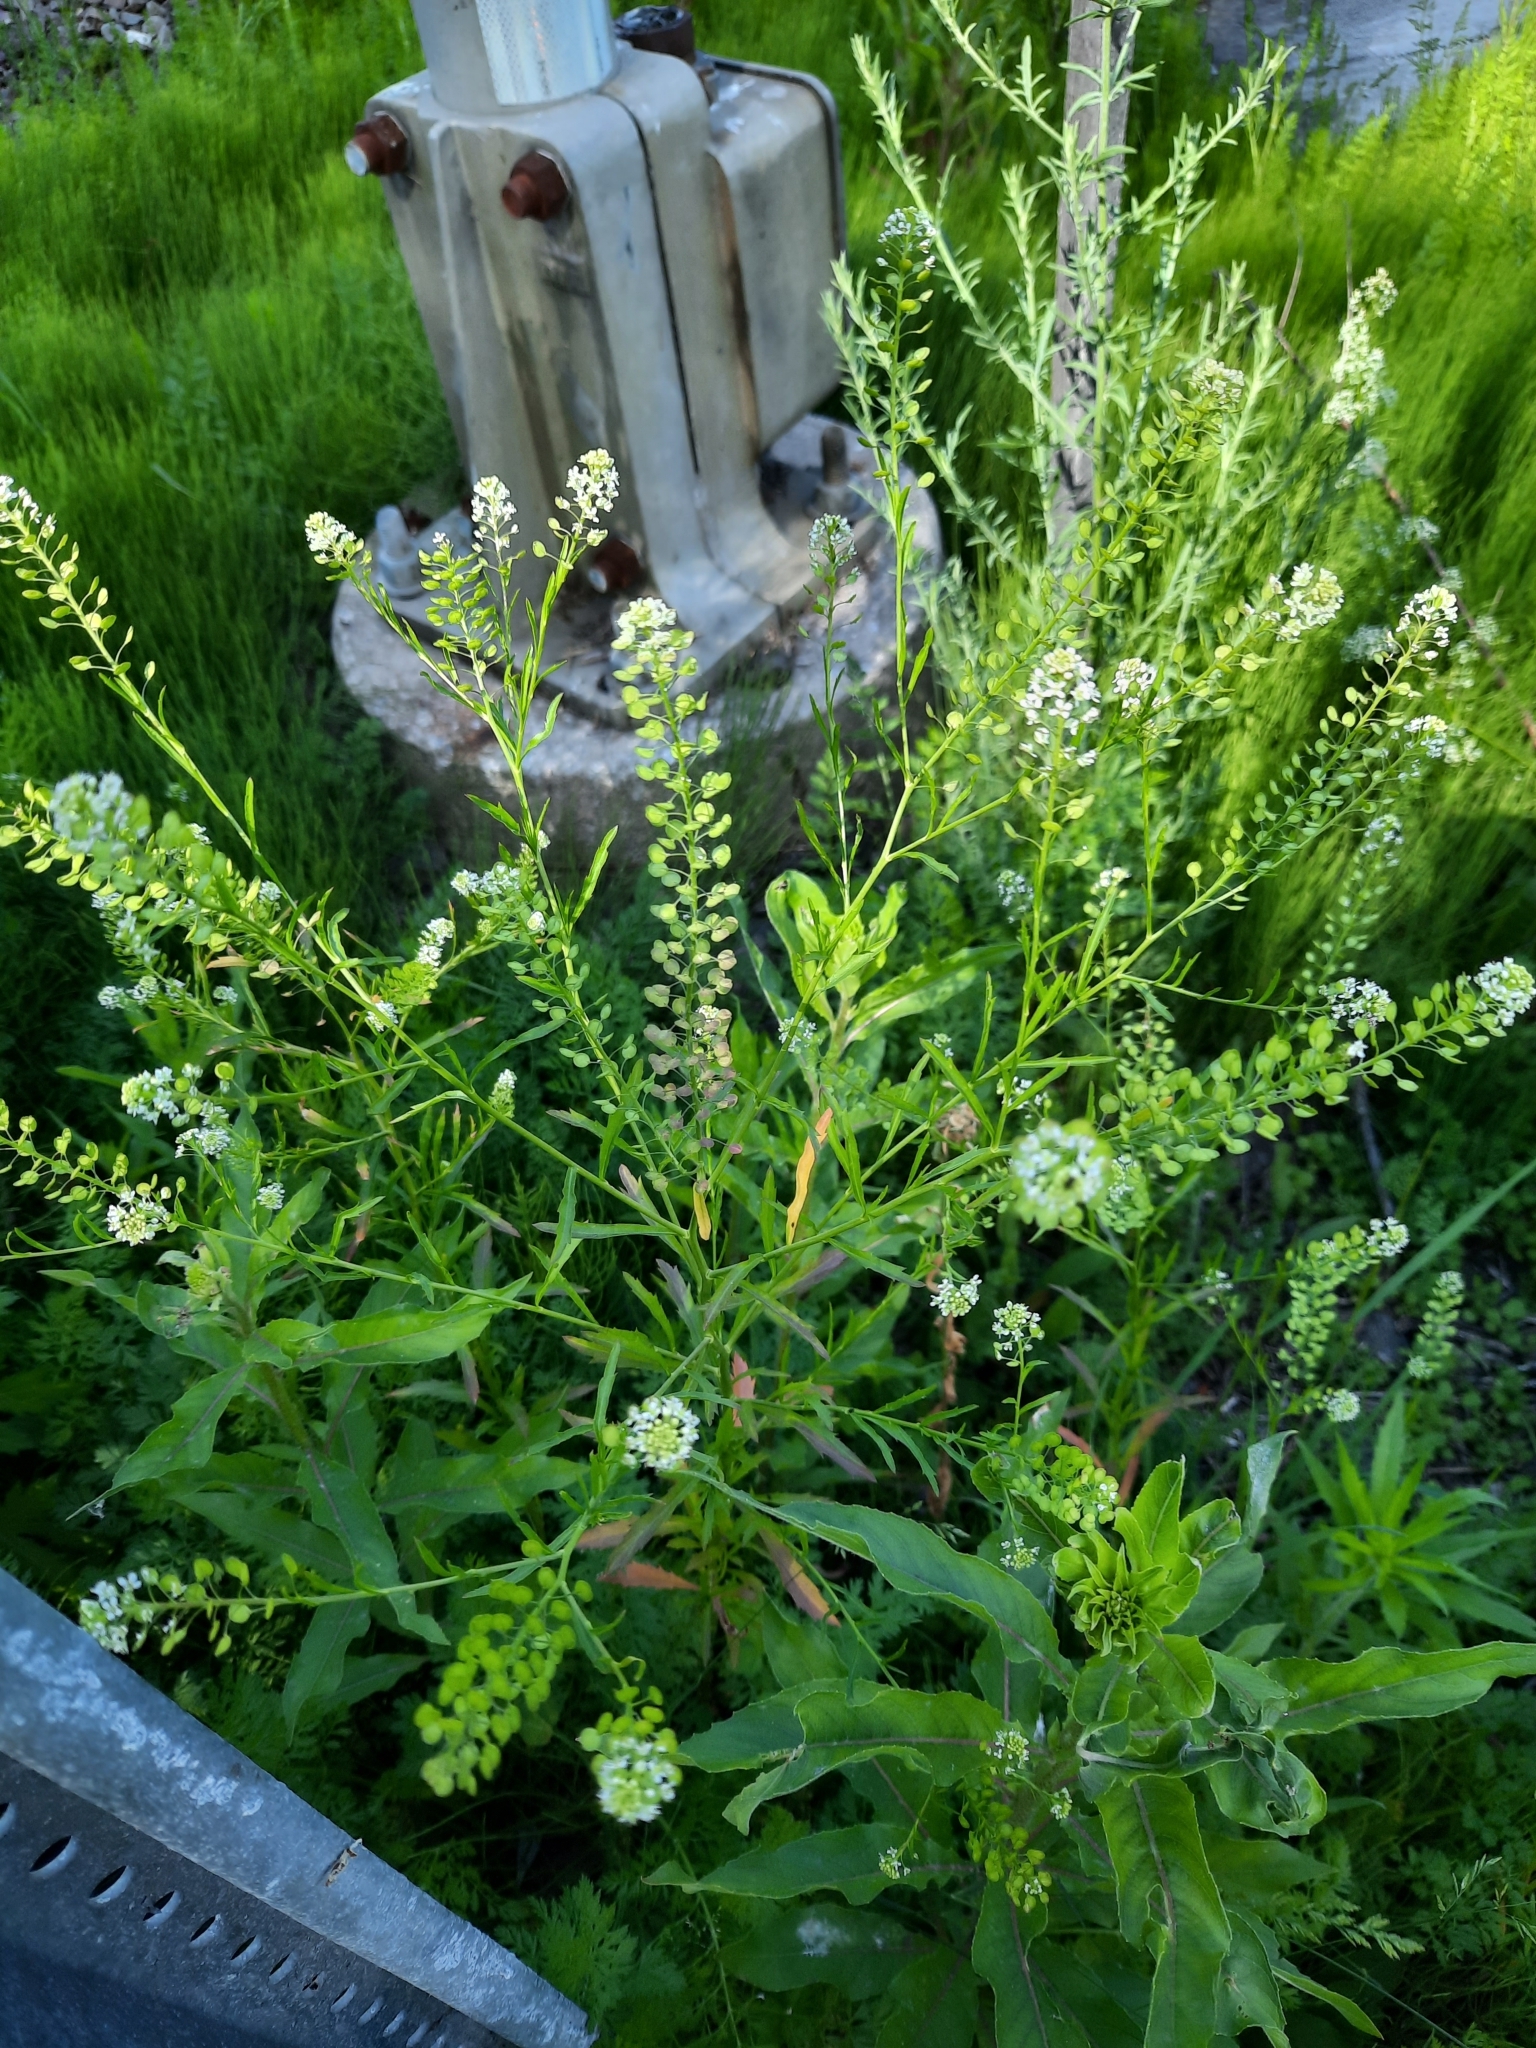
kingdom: Plantae
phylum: Tracheophyta
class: Magnoliopsida
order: Brassicales
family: Brassicaceae
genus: Lepidium
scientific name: Lepidium virginicum
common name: Least pepperwort
